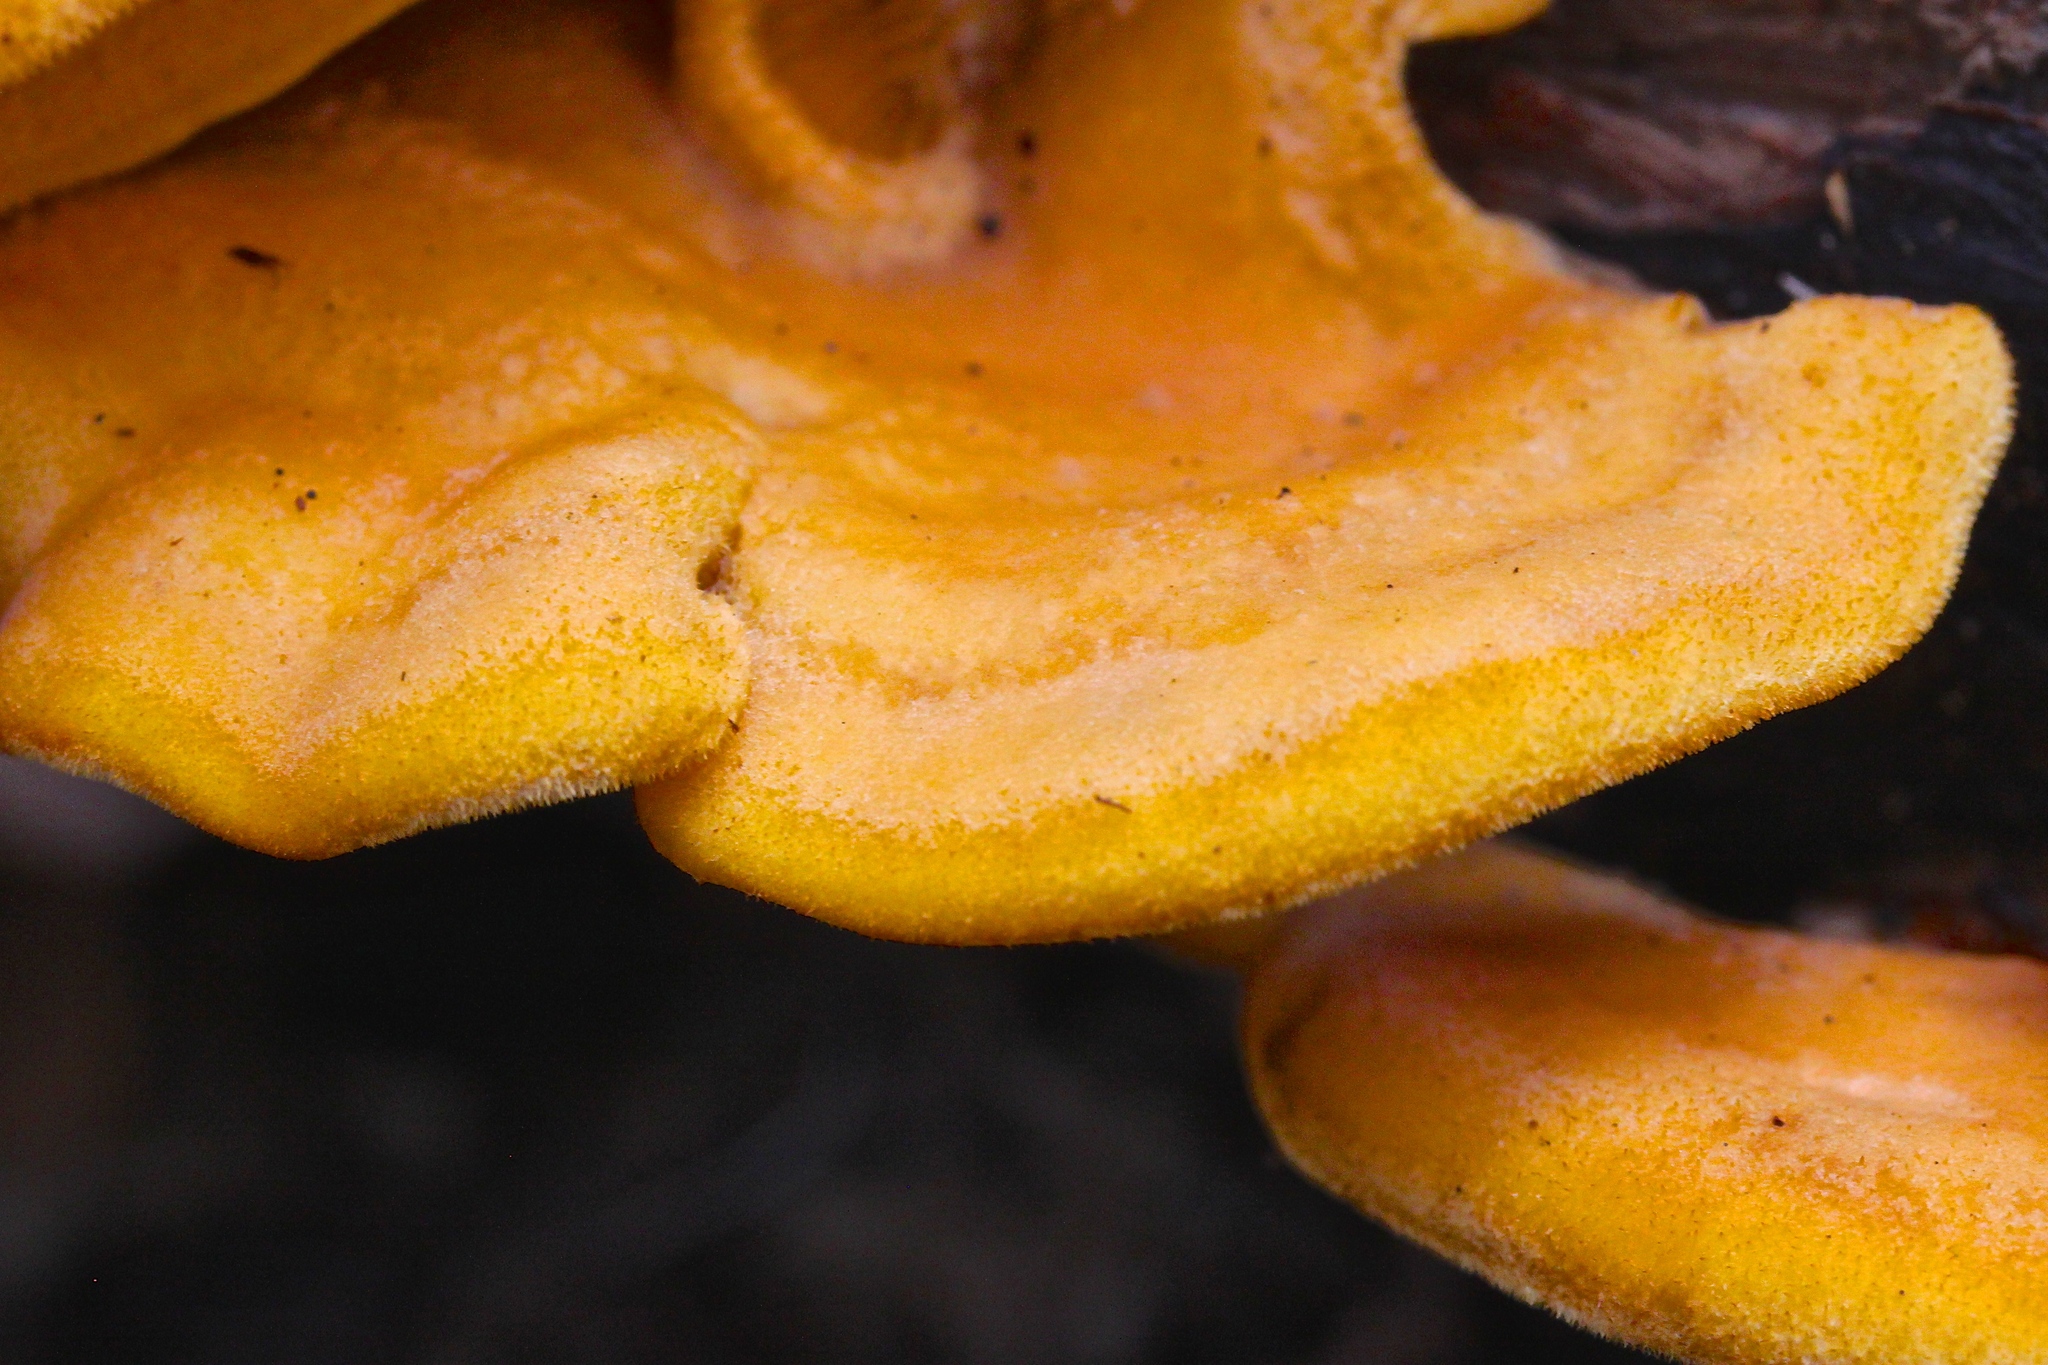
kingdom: Fungi
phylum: Basidiomycota
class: Agaricomycetes
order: Agaricales
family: Phyllotopsidaceae
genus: Phyllotopsis
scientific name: Phyllotopsis nidulans
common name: Orange mock oyster
